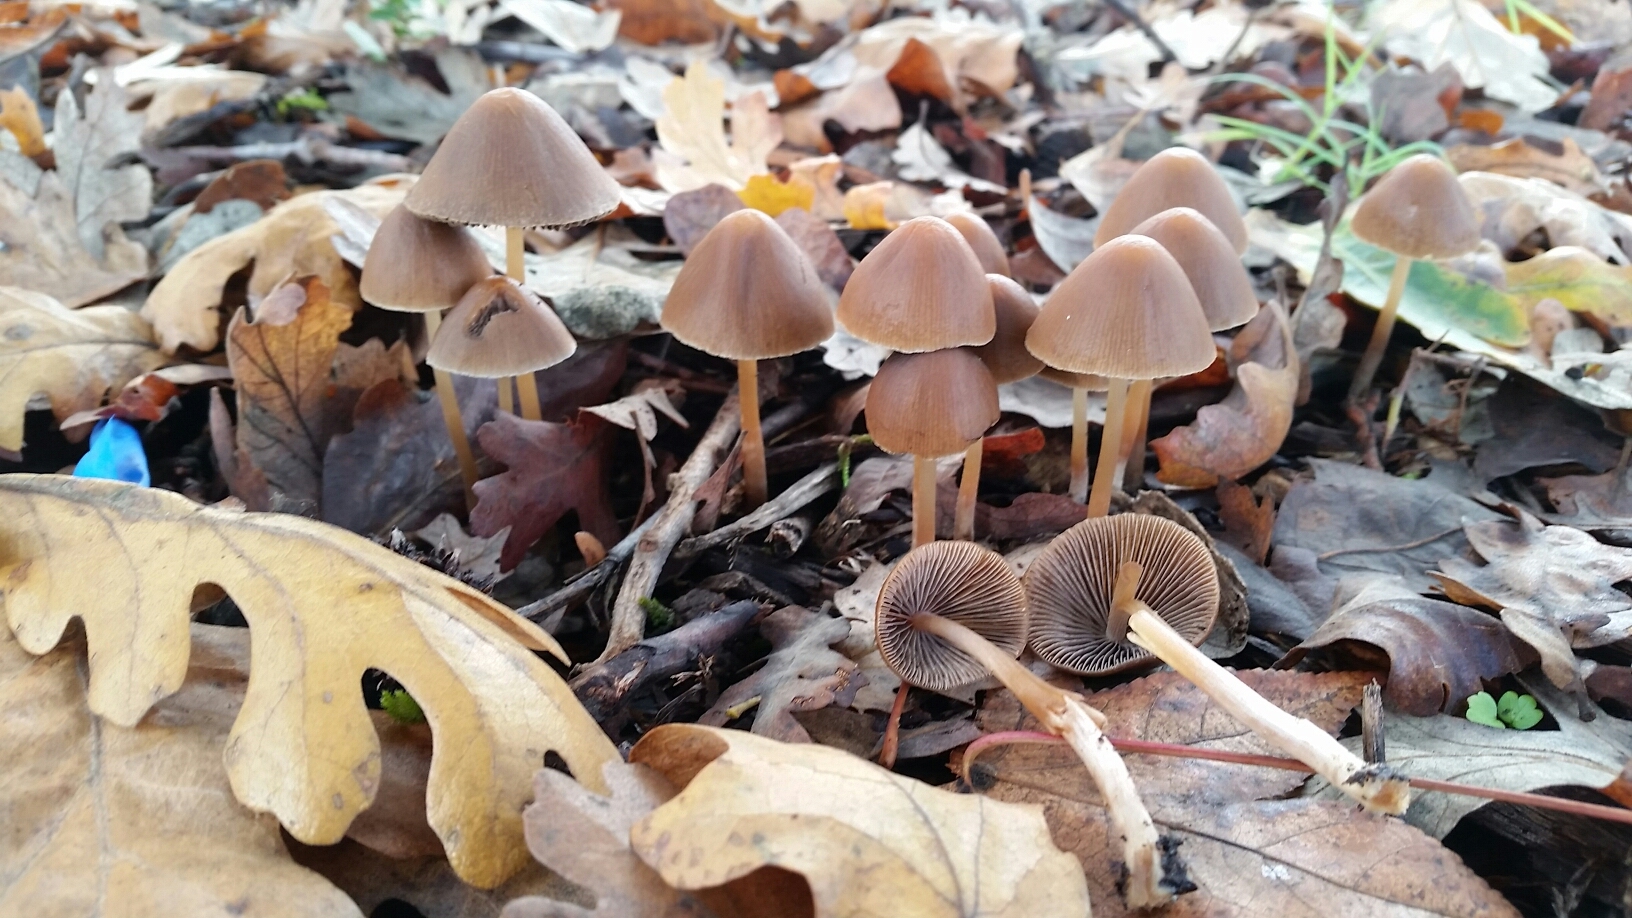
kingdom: Fungi
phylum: Basidiomycota
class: Agaricomycetes
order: Agaricales
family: Psathyrellaceae
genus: Psathyrella
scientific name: Psathyrella corrugis
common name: Red edge brittlestem
